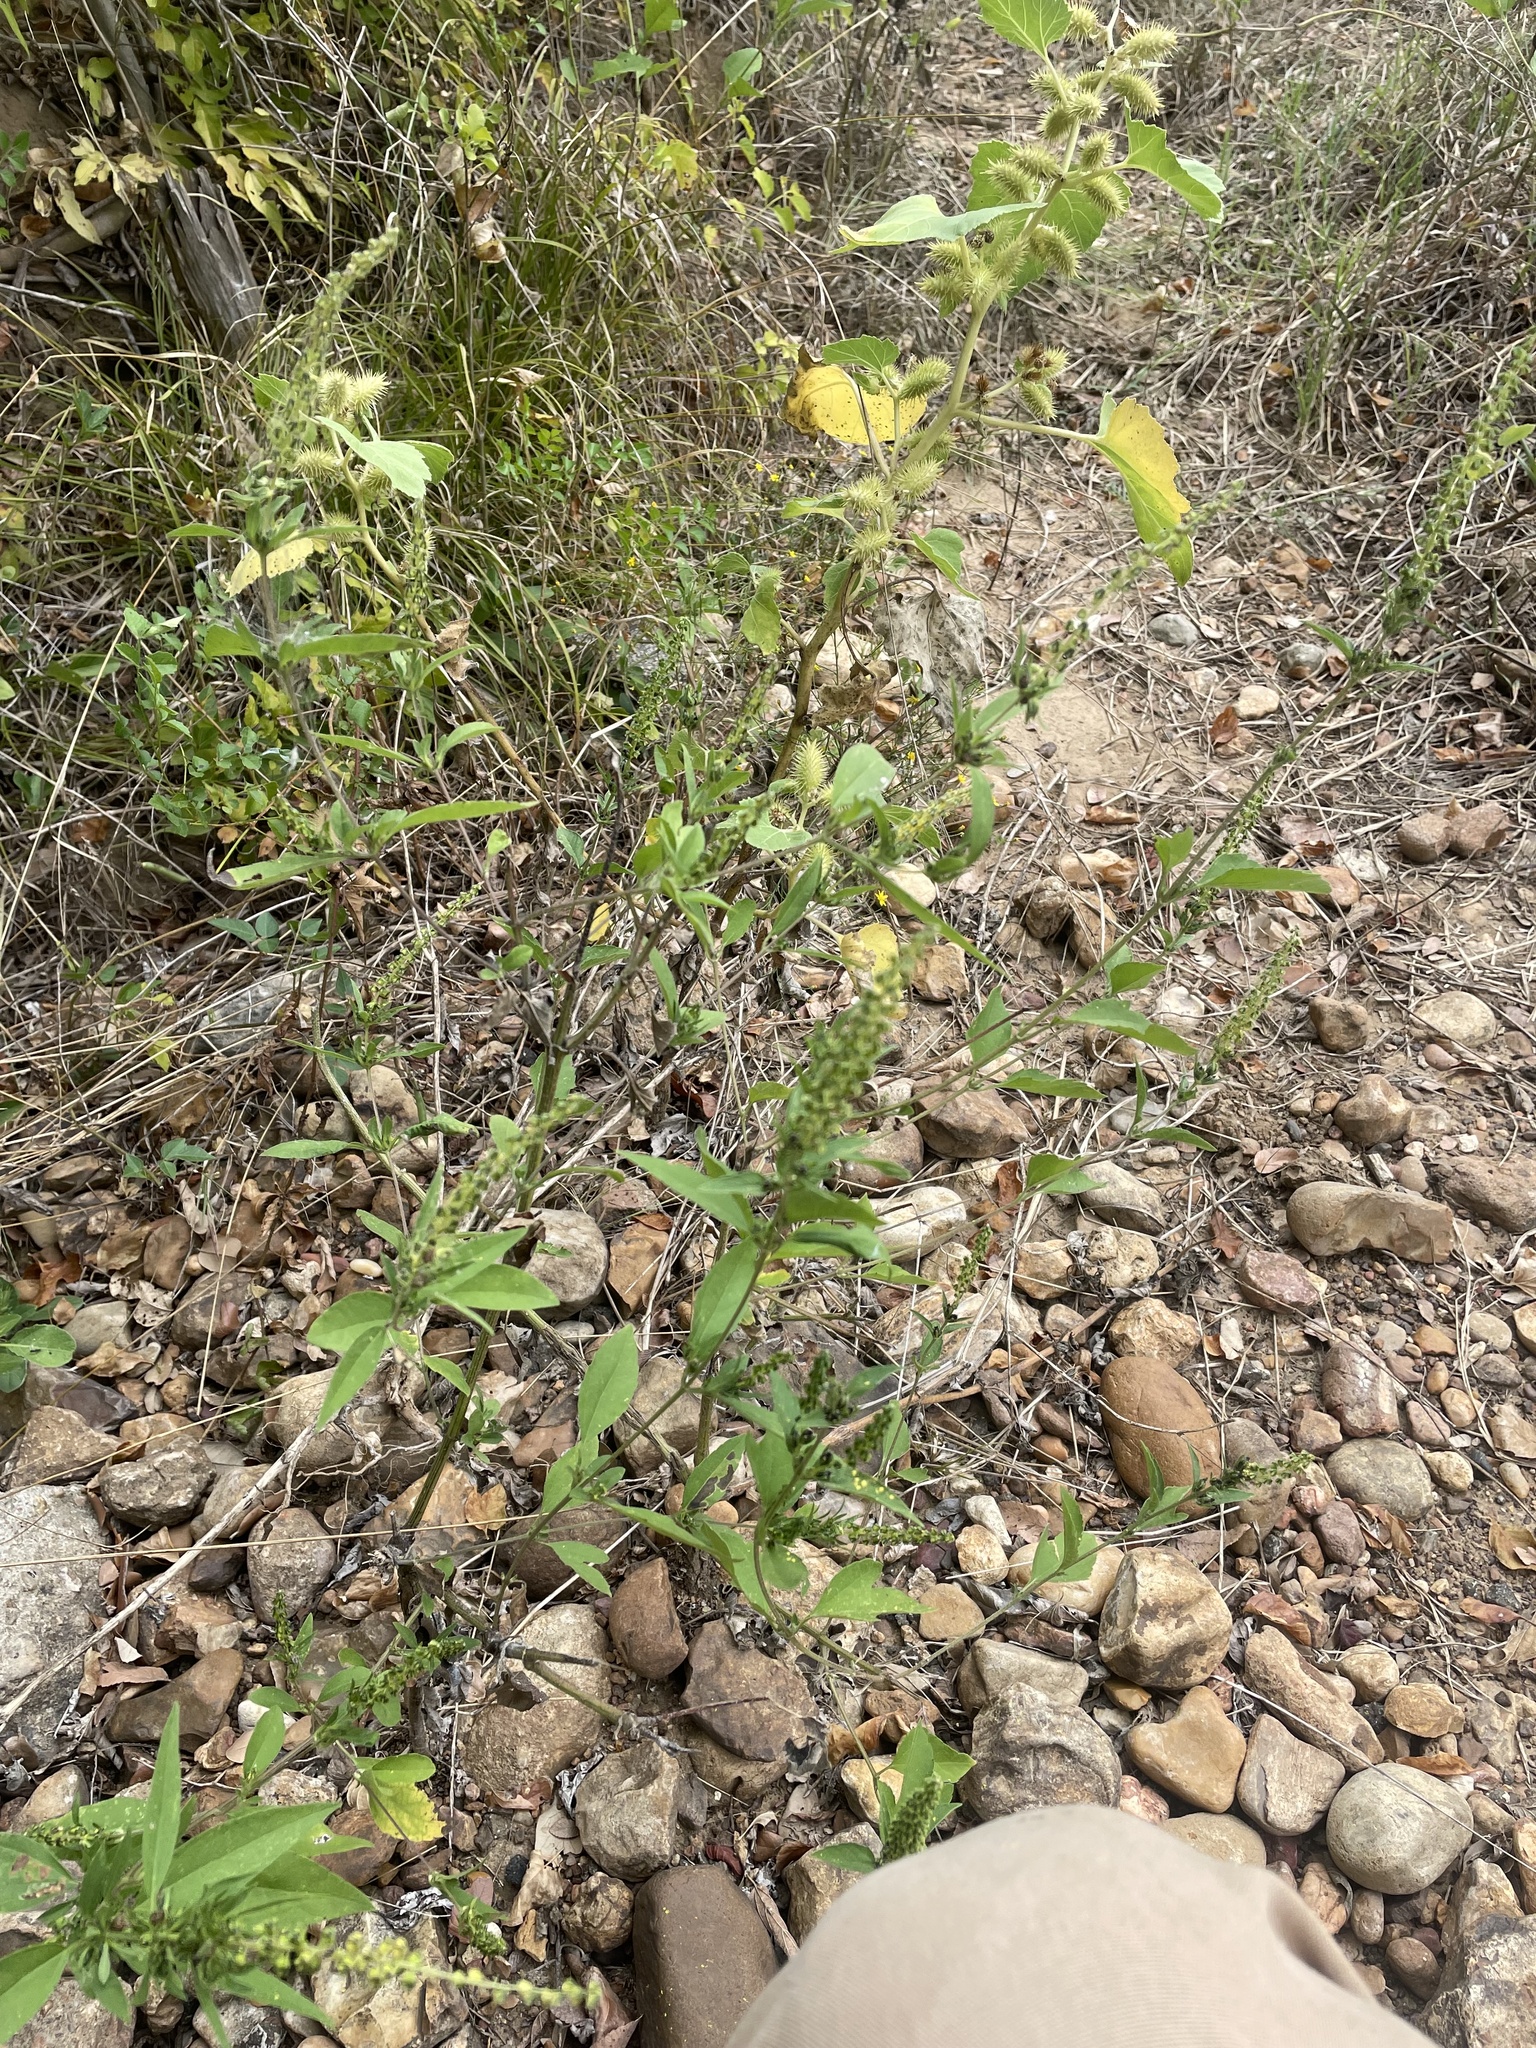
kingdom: Plantae
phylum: Tracheophyta
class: Magnoliopsida
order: Asterales
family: Asteraceae
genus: Ambrosia
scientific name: Ambrosia trifida
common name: Giant ragweed
